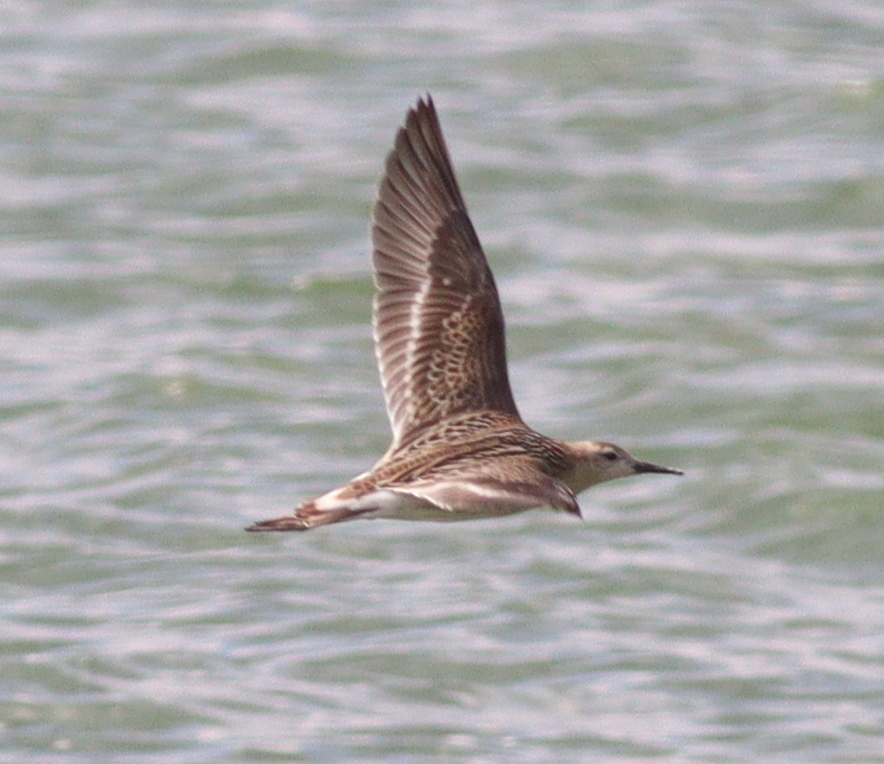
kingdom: Animalia
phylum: Chordata
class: Aves
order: Charadriiformes
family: Scolopacidae
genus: Calidris
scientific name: Calidris pugnax
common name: Ruff
